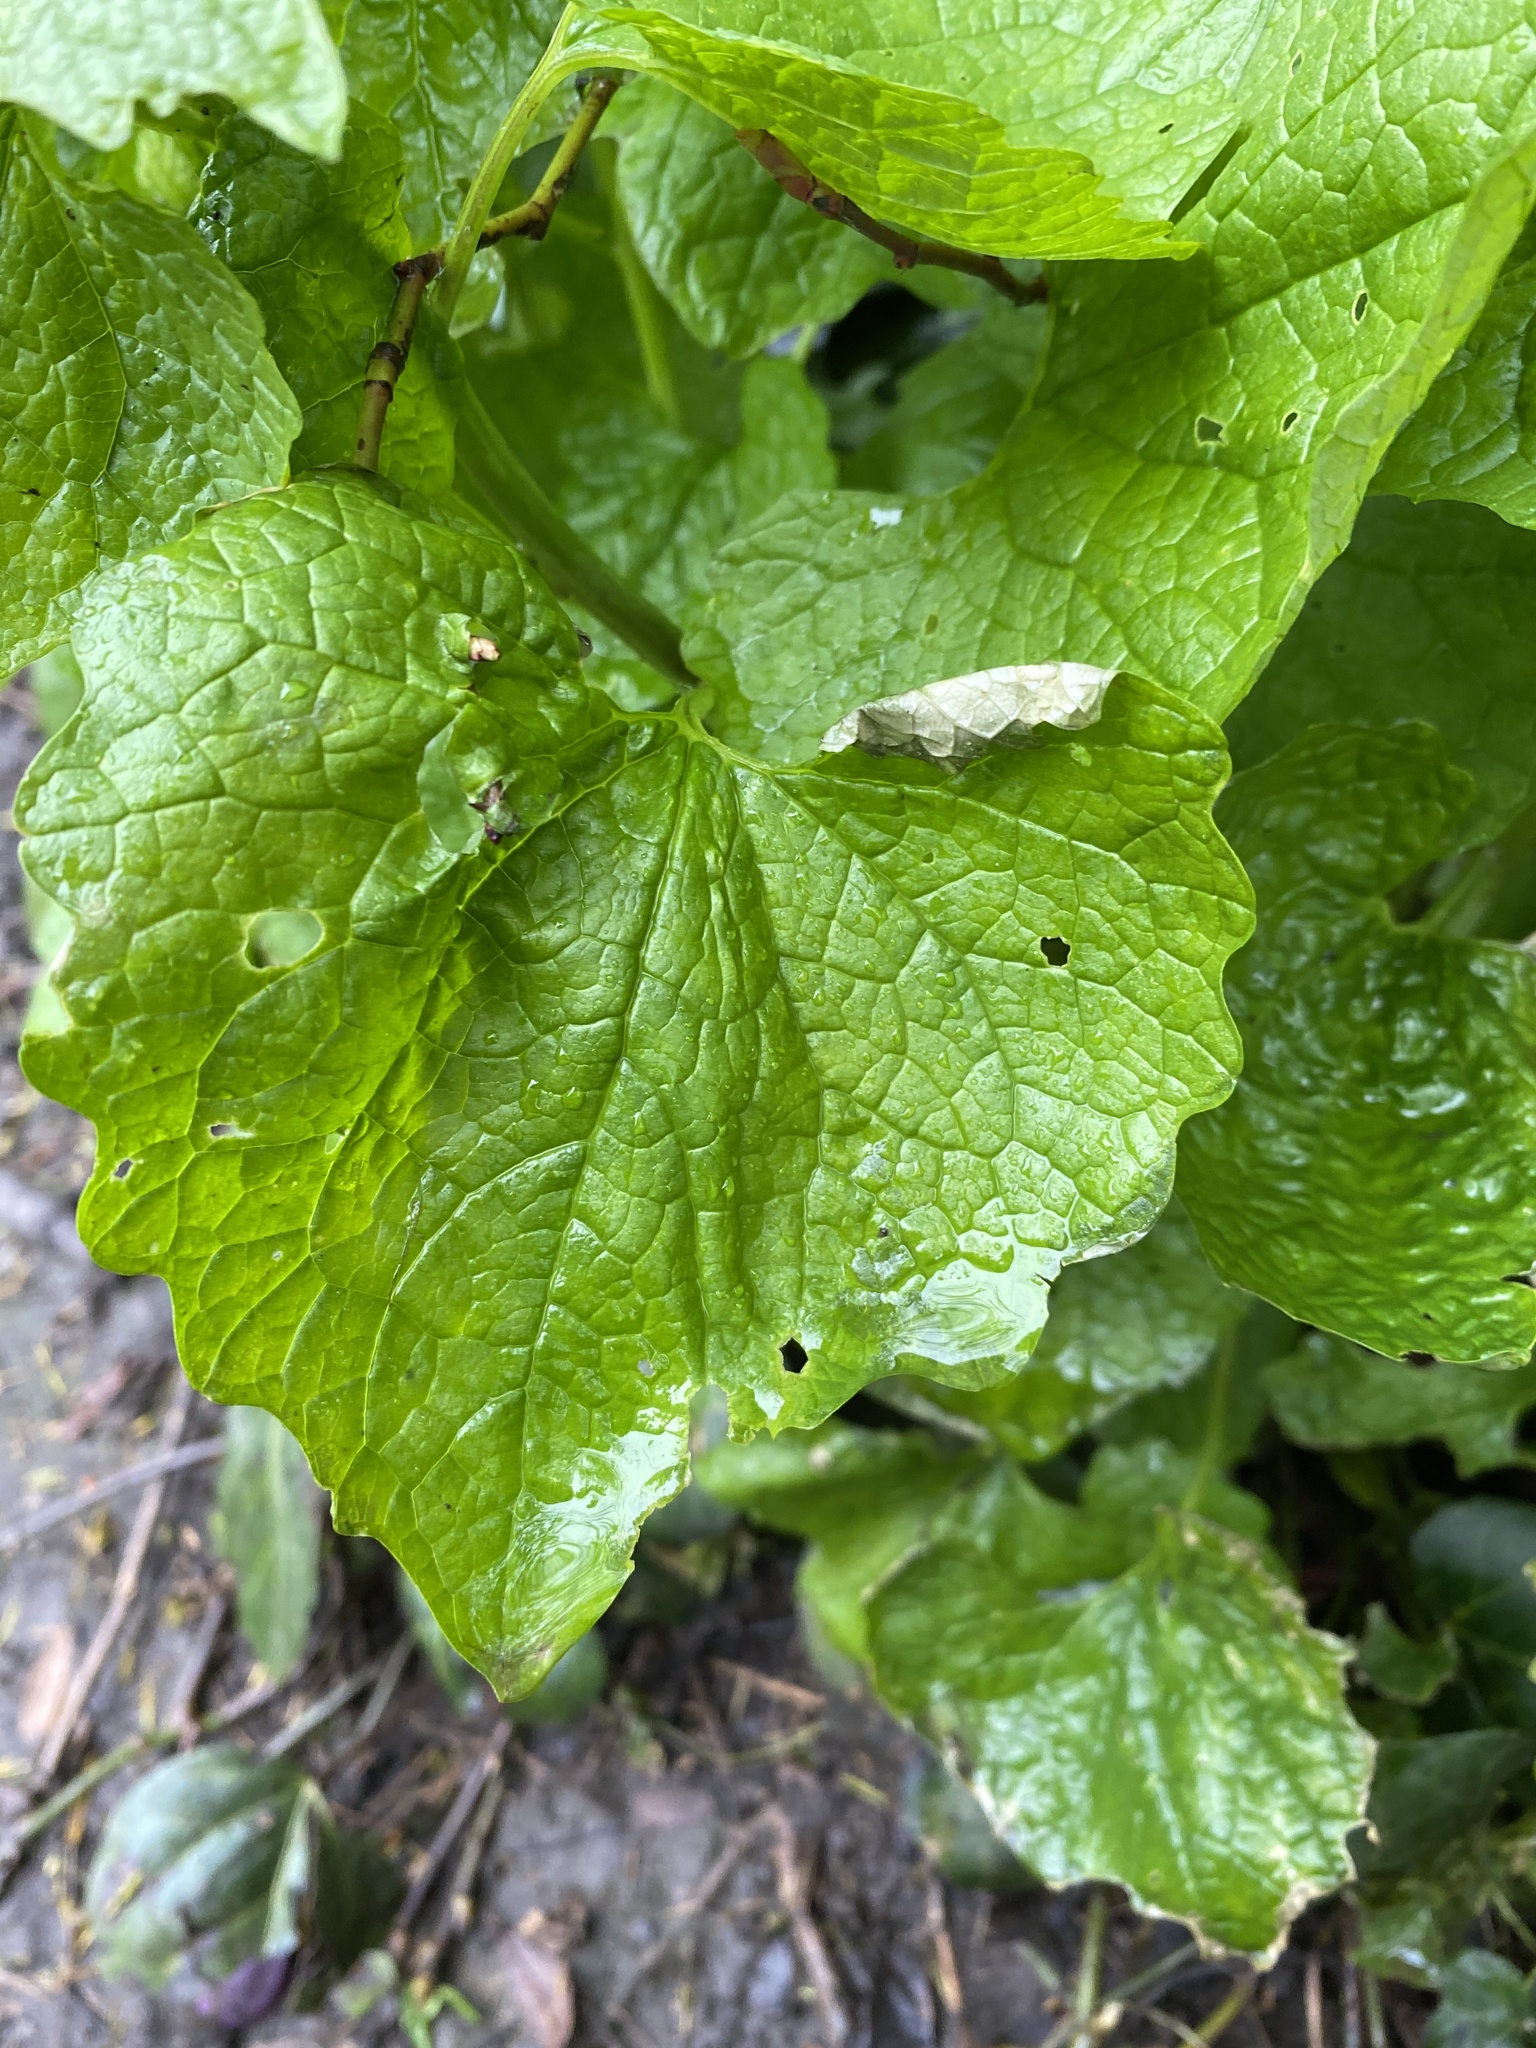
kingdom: Plantae
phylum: Tracheophyta
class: Magnoliopsida
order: Brassicales
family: Brassicaceae
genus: Alliaria
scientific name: Alliaria petiolata
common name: Garlic mustard
